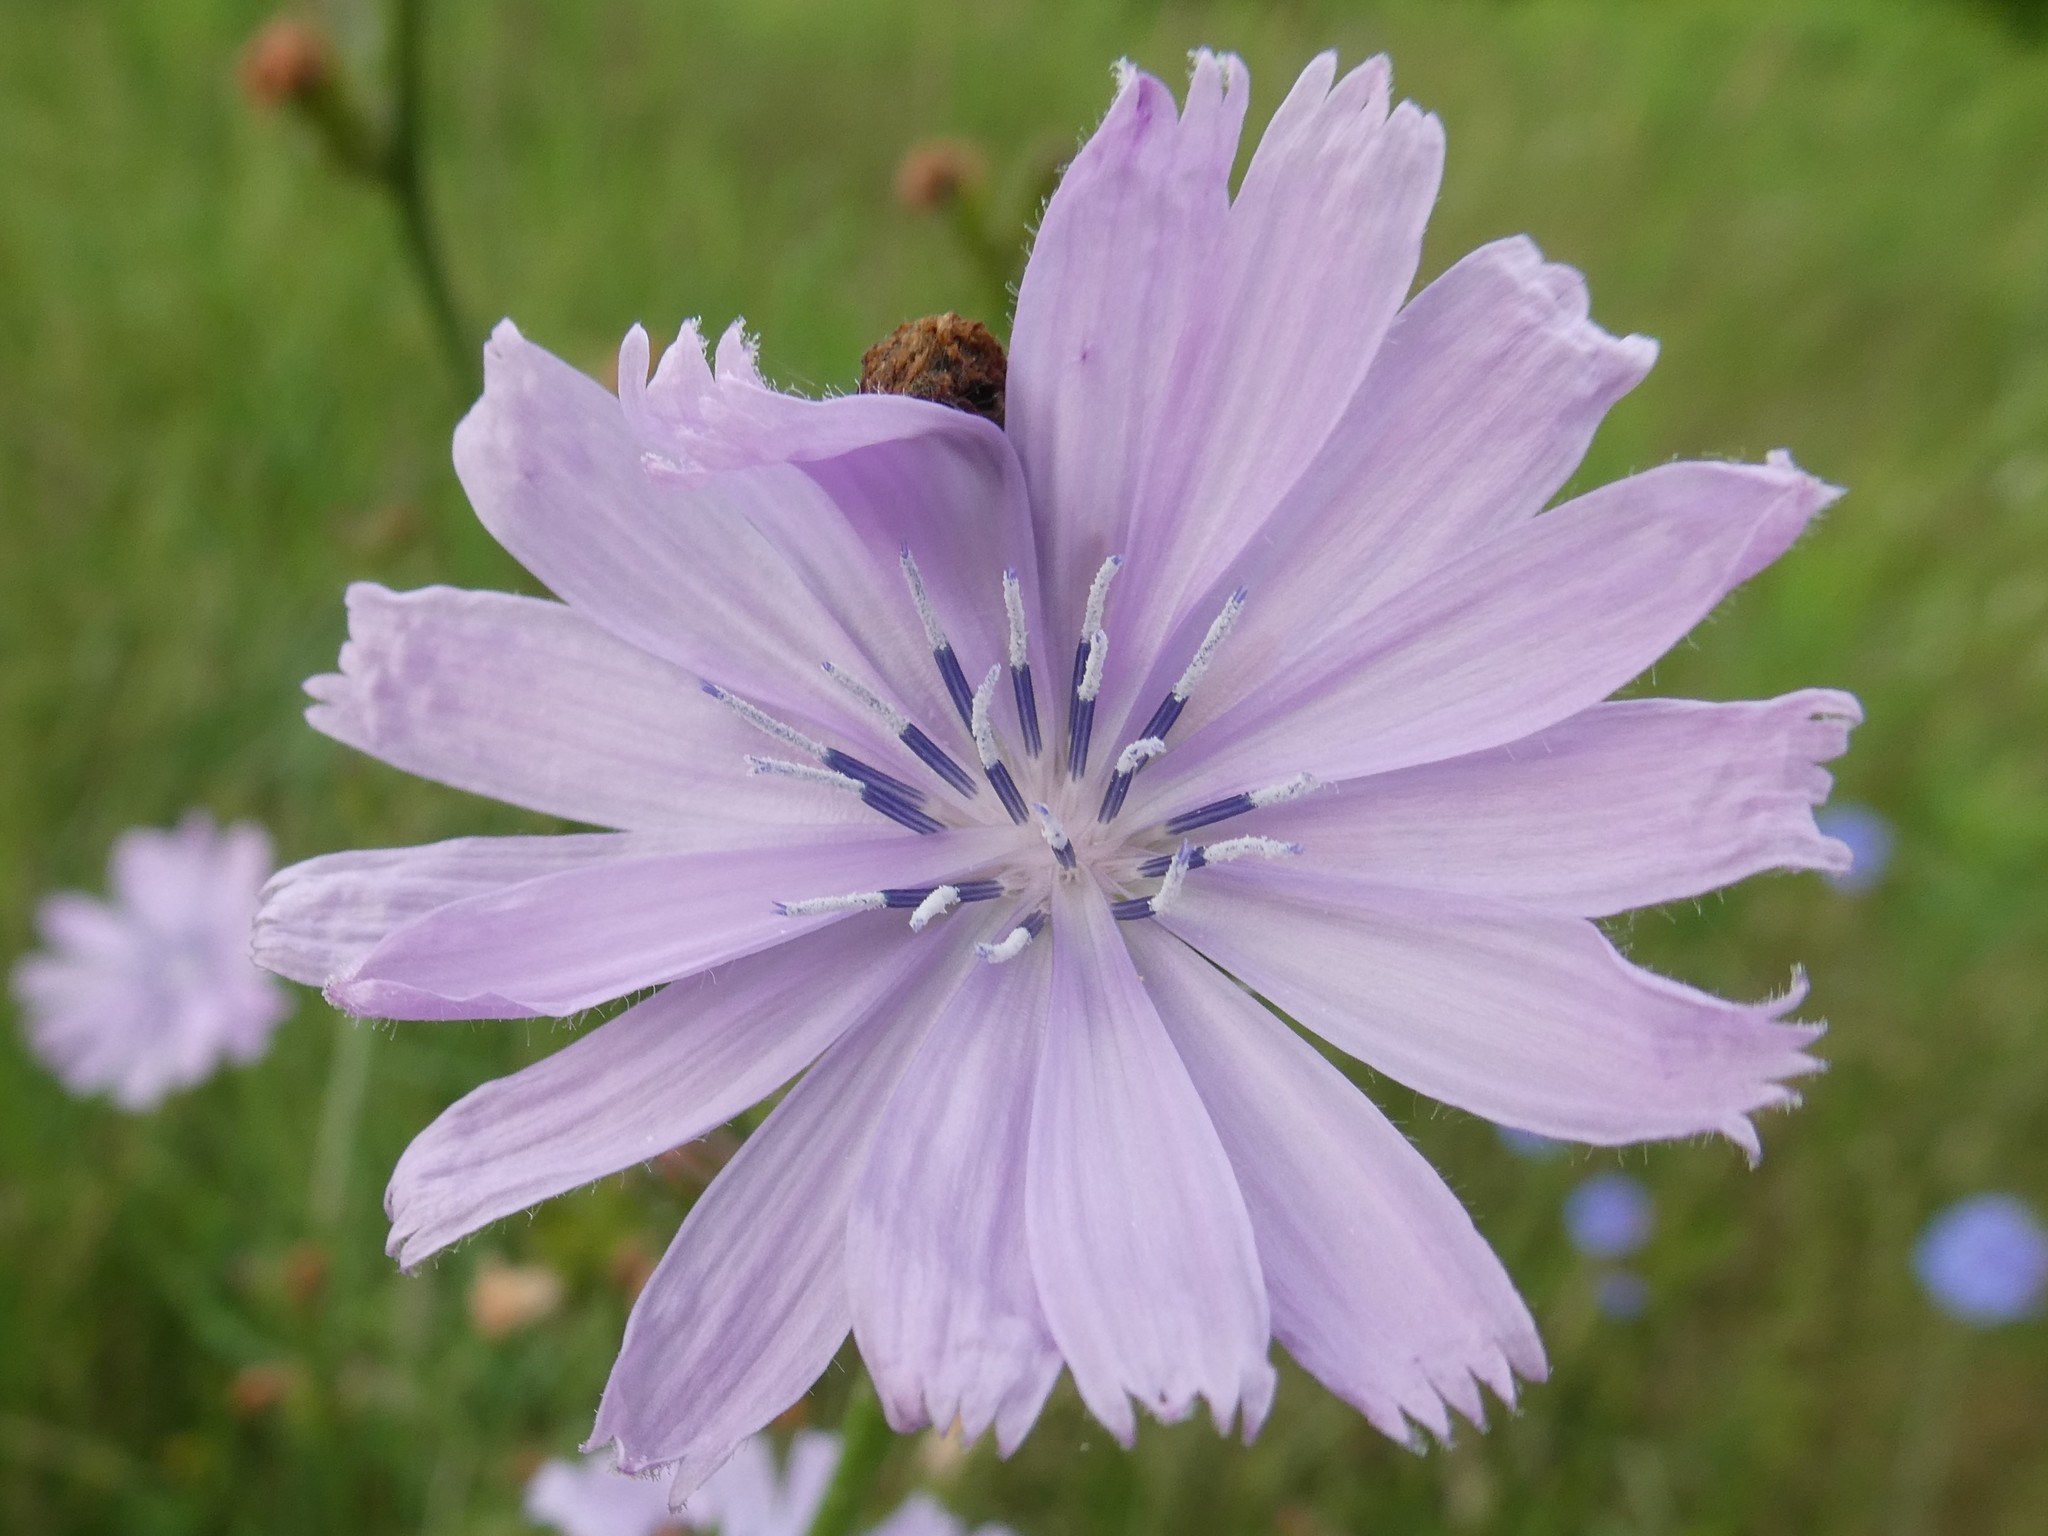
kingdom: Plantae
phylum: Tracheophyta
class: Magnoliopsida
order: Asterales
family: Asteraceae
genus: Cichorium
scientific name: Cichorium intybus
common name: Chicory
